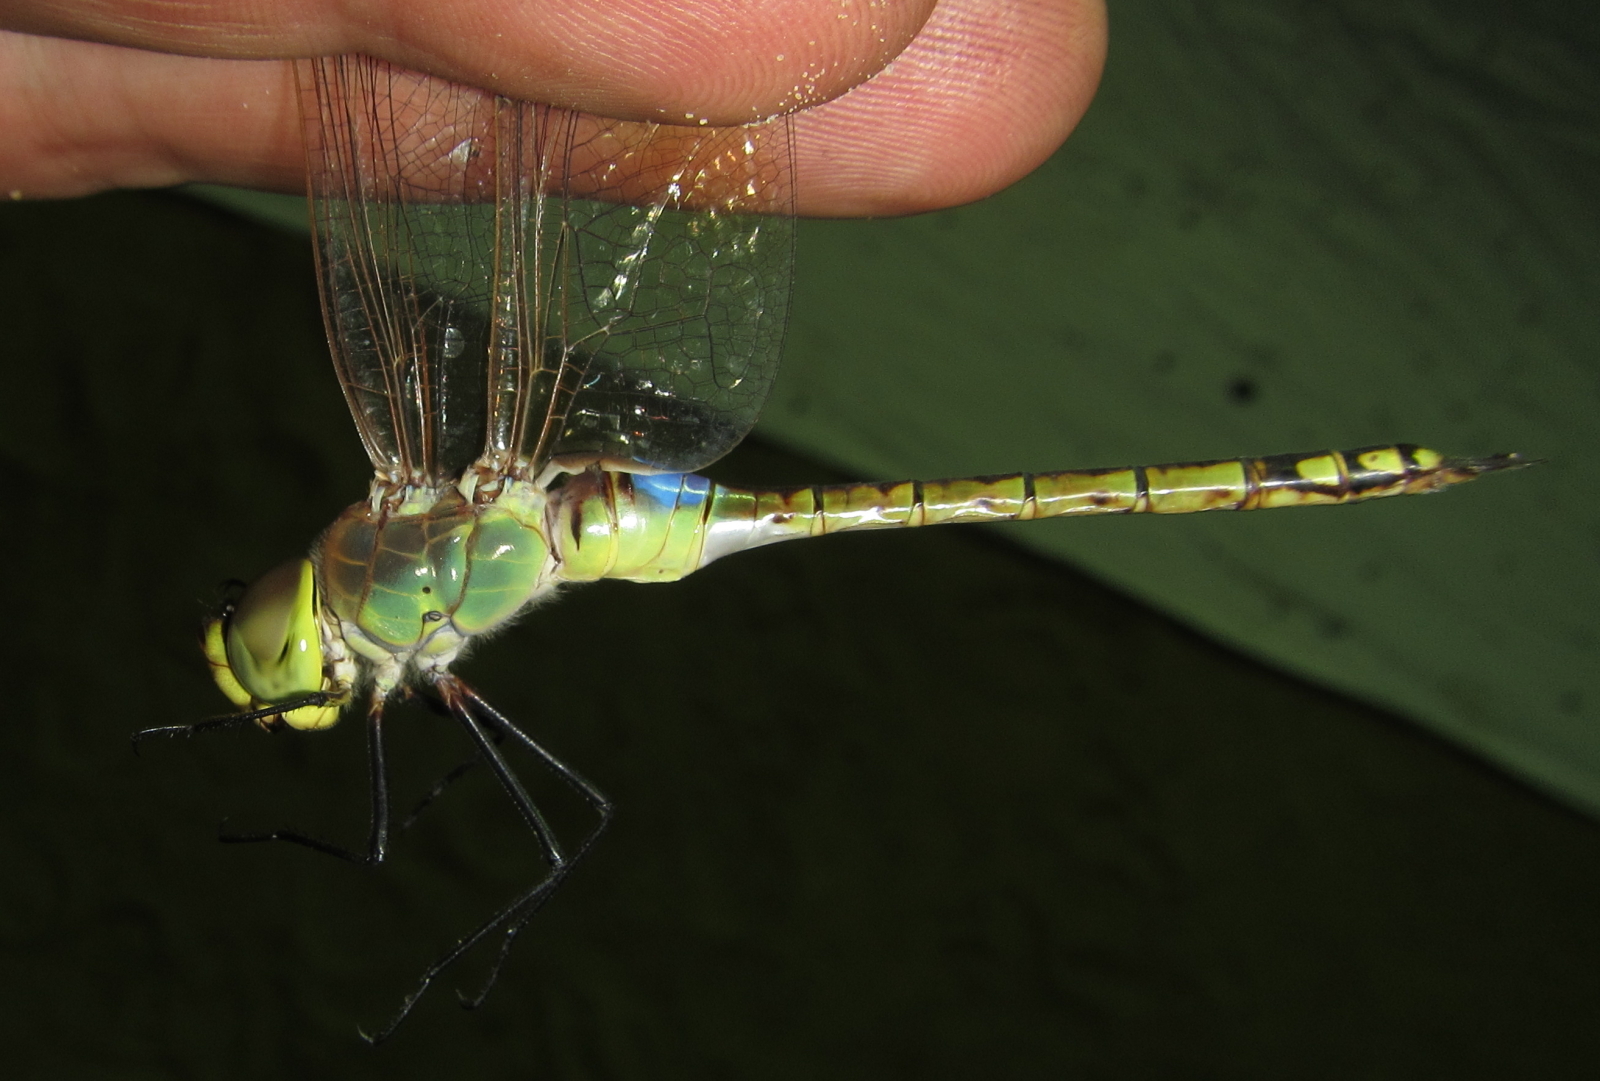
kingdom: Animalia
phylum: Arthropoda
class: Insecta
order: Odonata
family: Aeshnidae
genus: Anax
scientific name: Anax ephippiger
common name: Vagrant emperor
